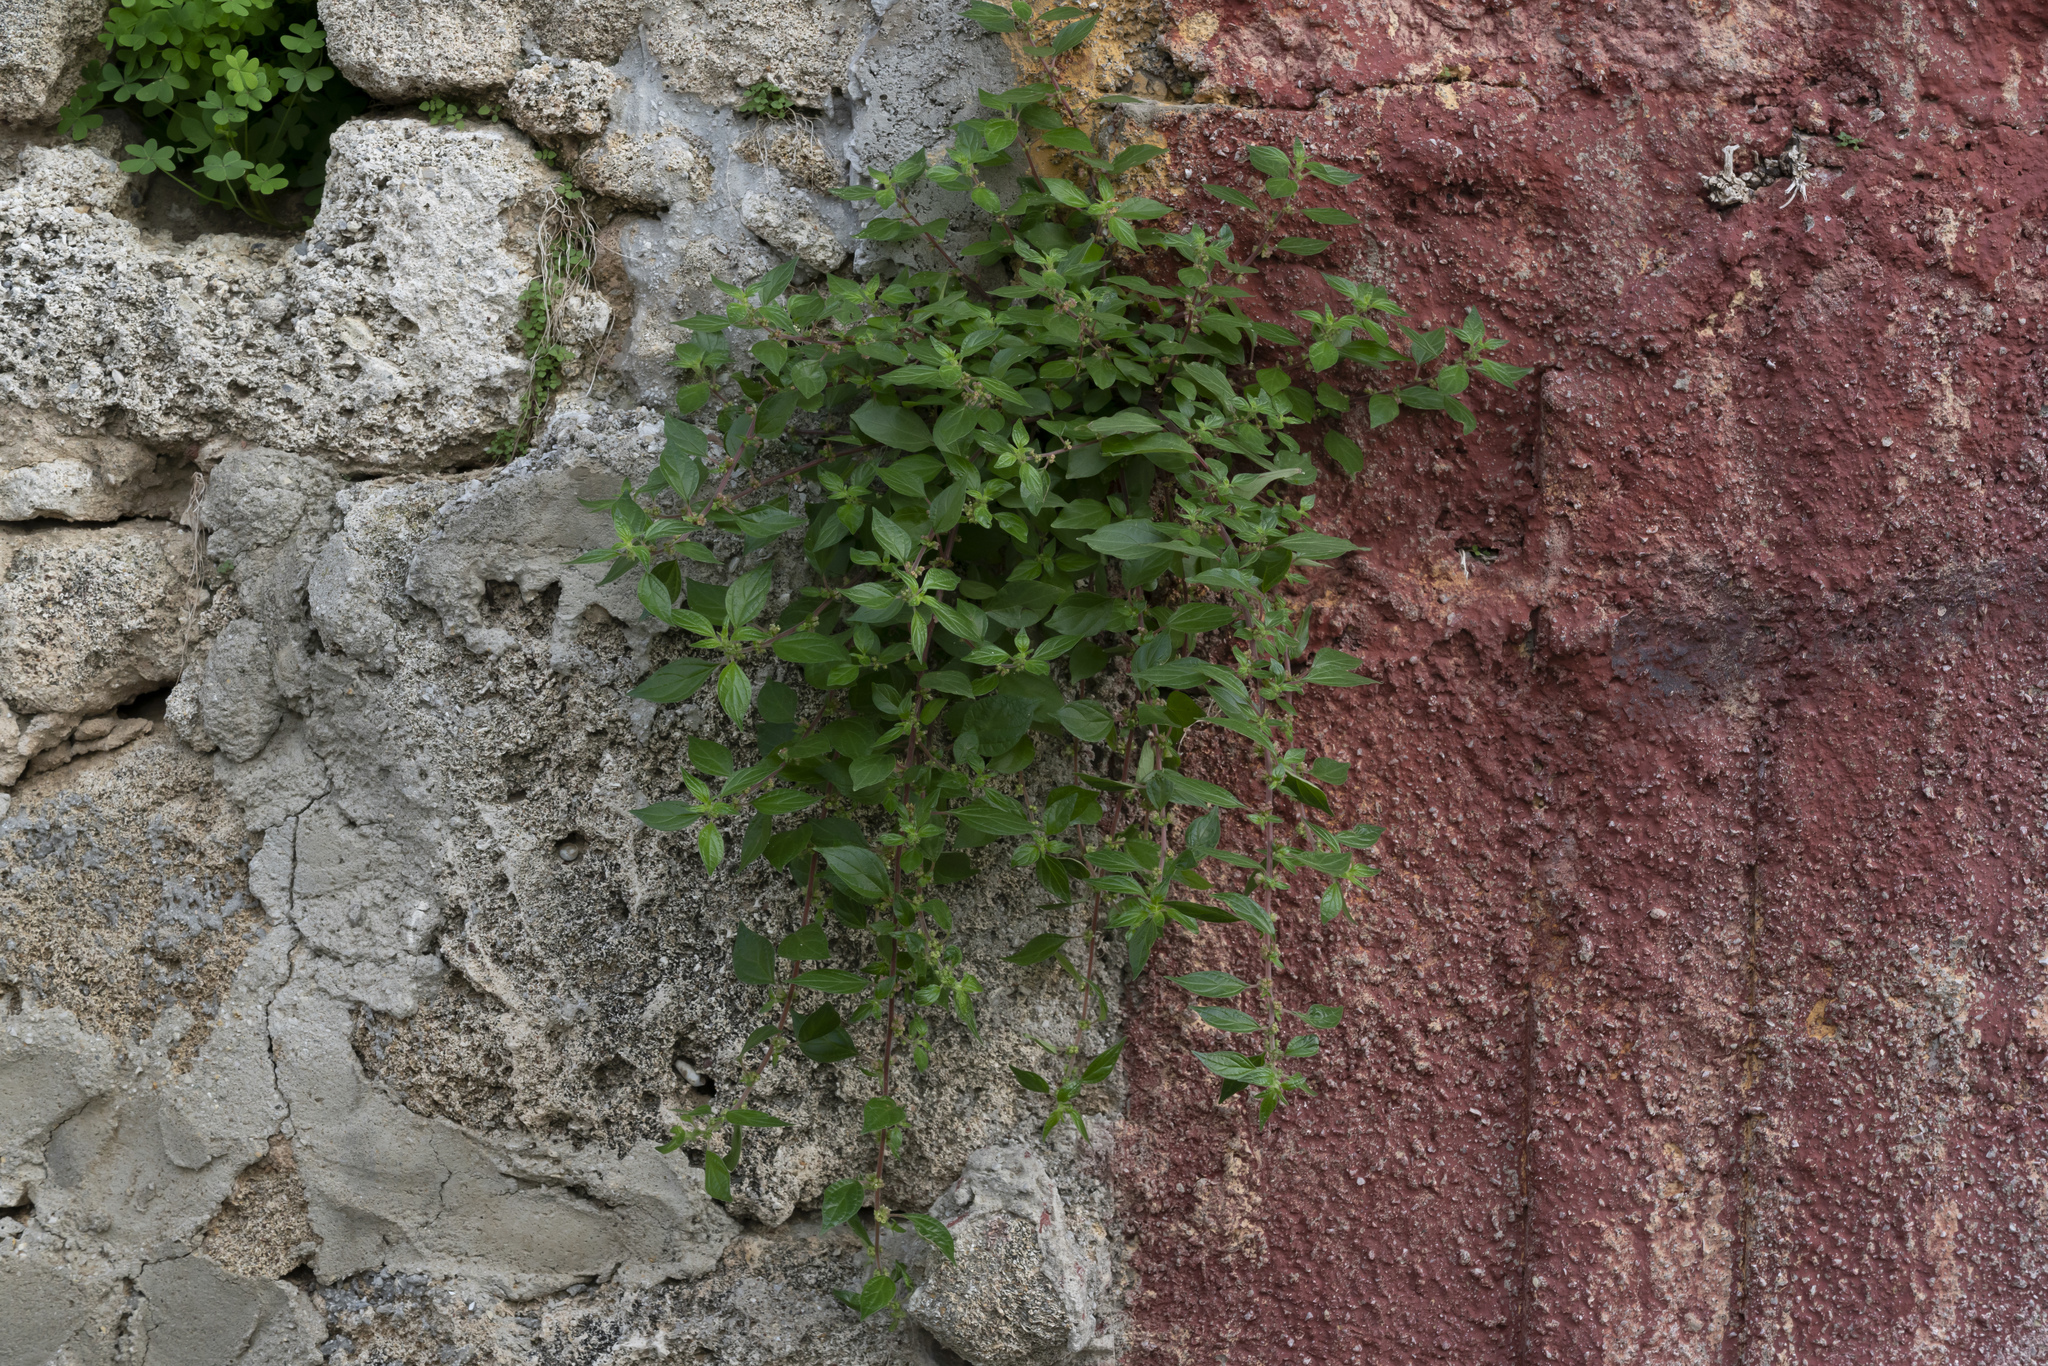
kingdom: Plantae
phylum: Tracheophyta
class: Magnoliopsida
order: Rosales
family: Urticaceae
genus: Parietaria
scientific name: Parietaria judaica
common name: Pellitory-of-the-wall
